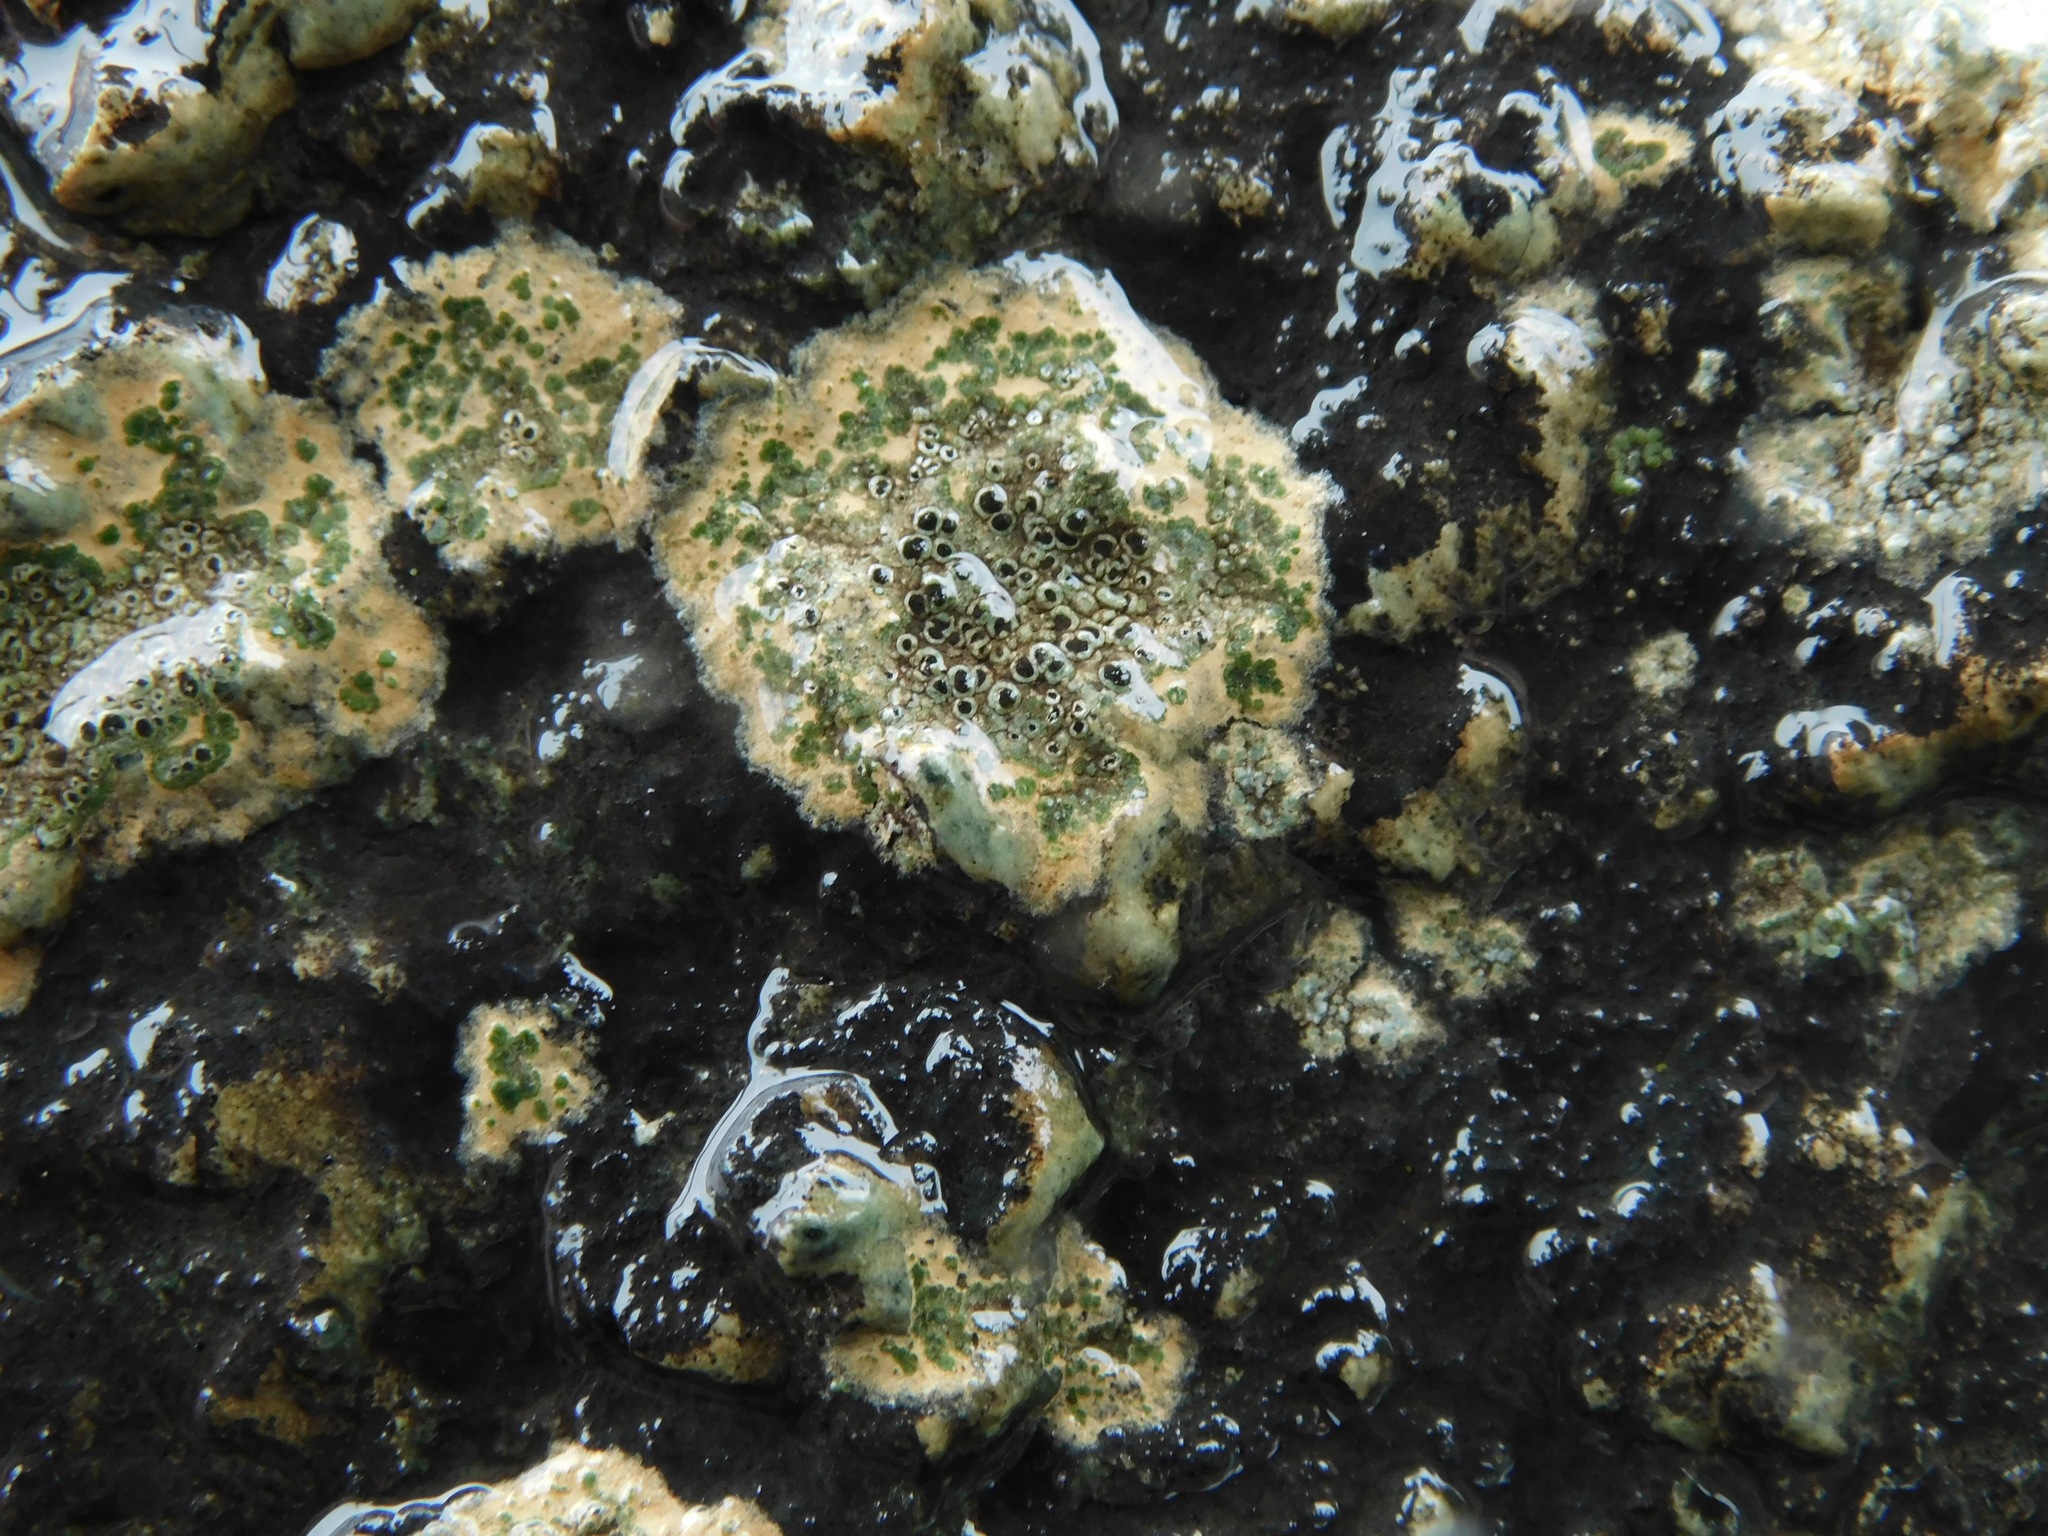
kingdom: Fungi
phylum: Ascomycota
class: Lecanoromycetes
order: Caliciales
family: Physciaceae
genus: Rinodina
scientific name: Rinodina milvina
